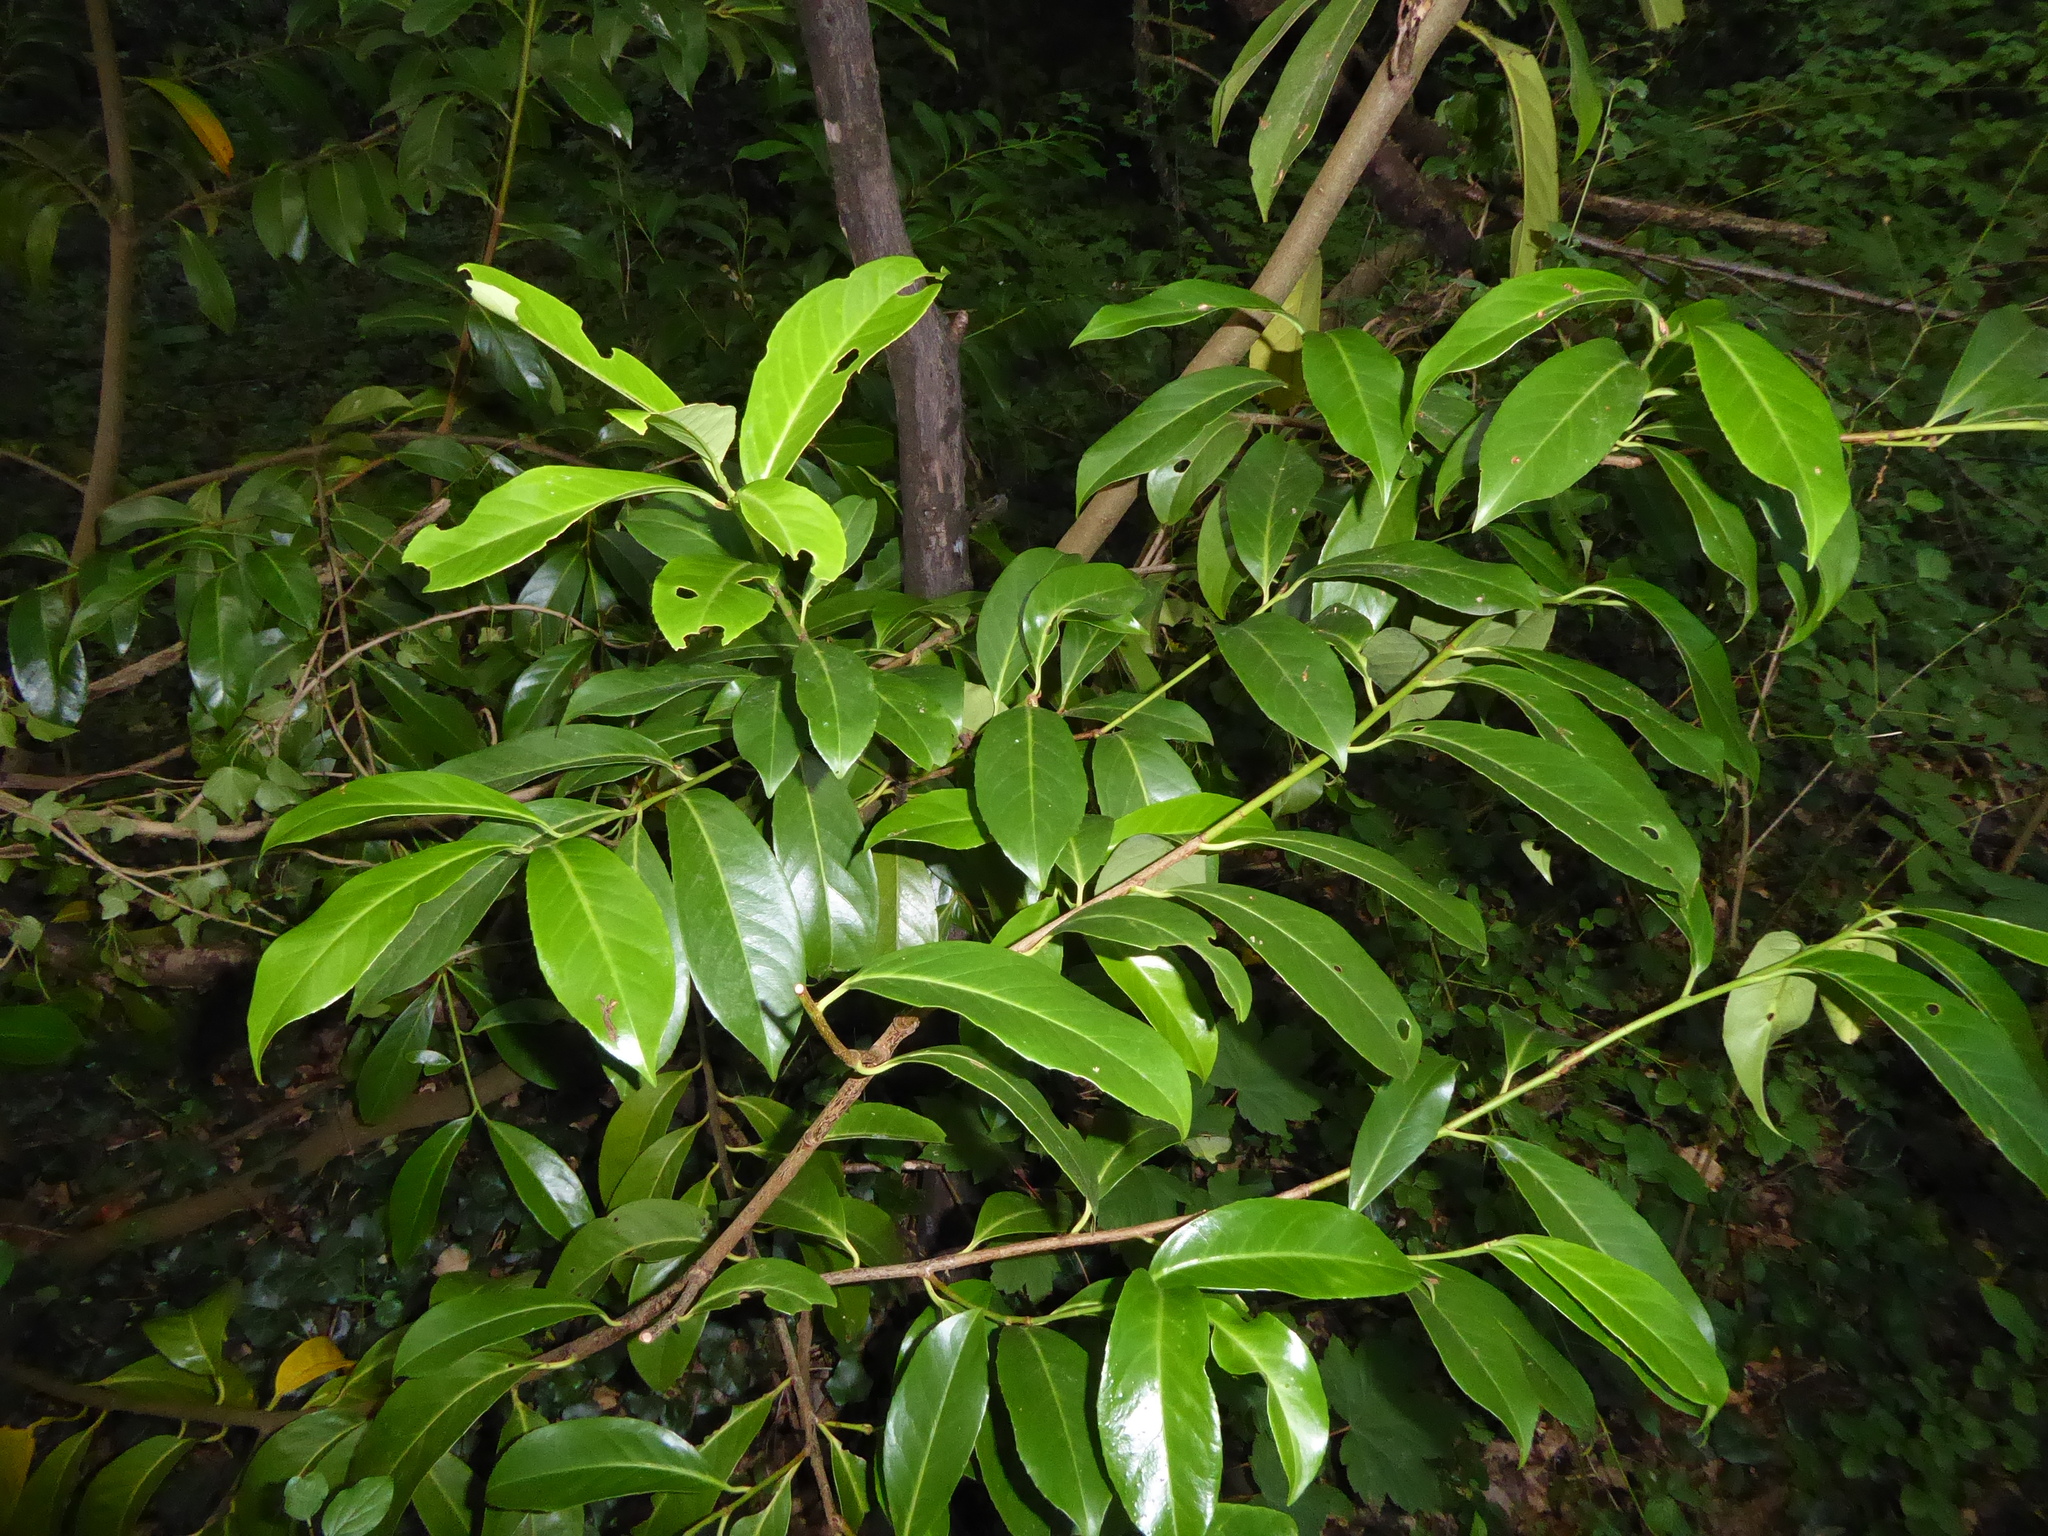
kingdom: Plantae
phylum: Tracheophyta
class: Magnoliopsida
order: Rosales
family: Rosaceae
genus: Prunus
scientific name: Prunus laurocerasus
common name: Cherry laurel
